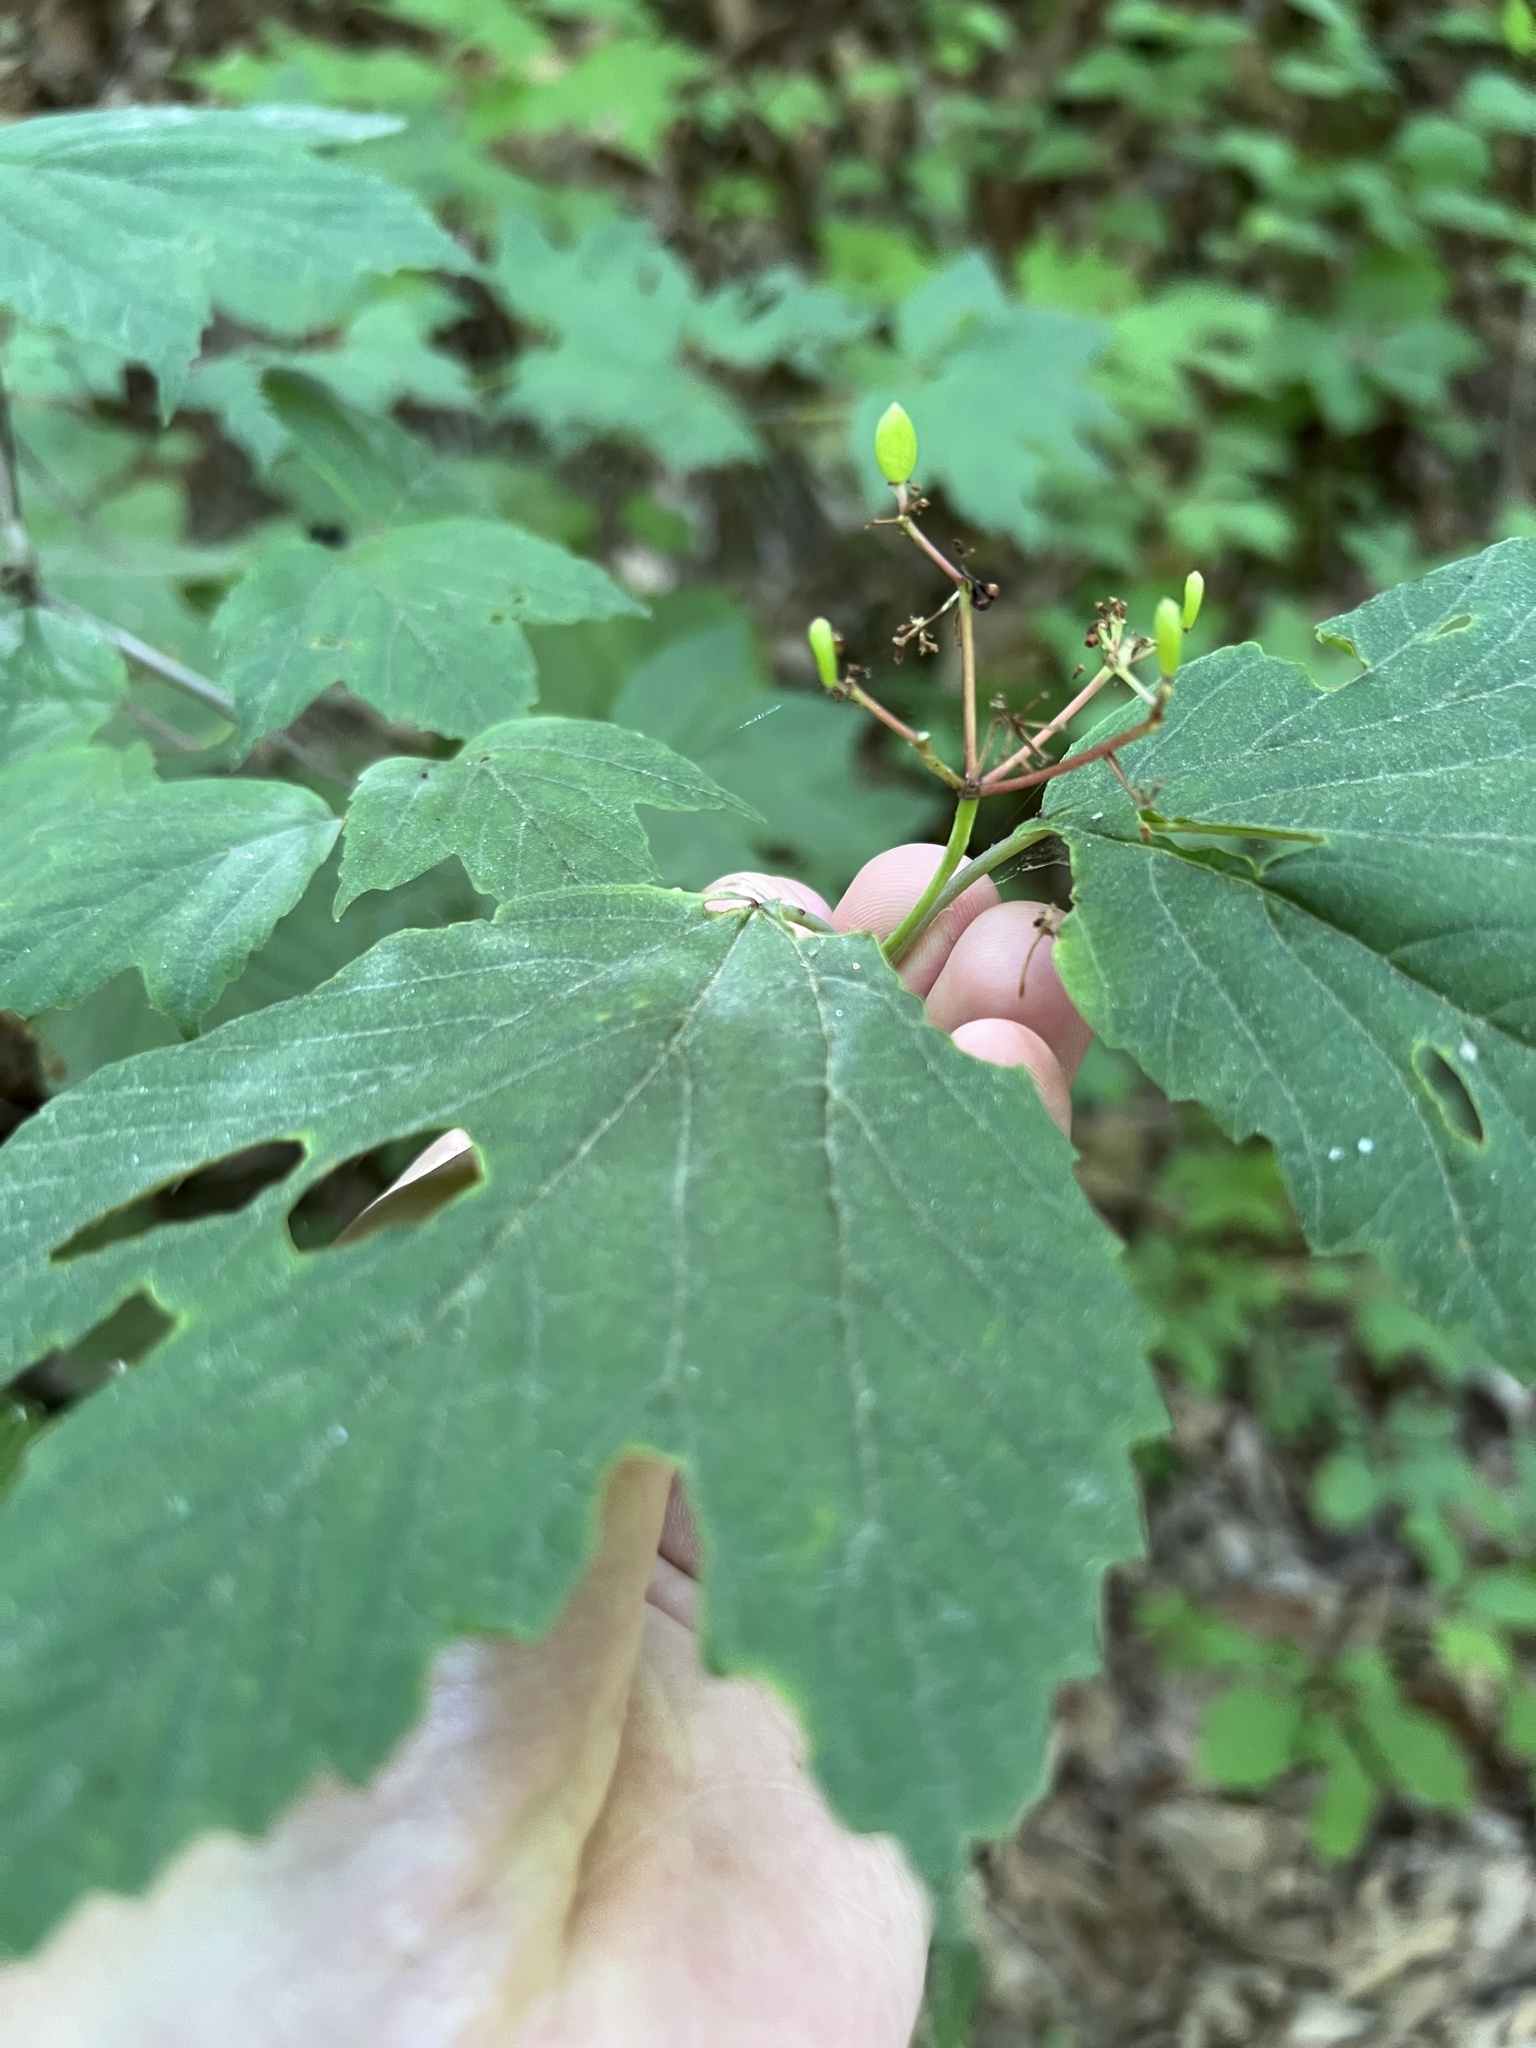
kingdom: Plantae
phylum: Tracheophyta
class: Magnoliopsida
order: Dipsacales
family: Viburnaceae
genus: Viburnum
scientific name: Viburnum acerifolium
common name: Dockmackie
